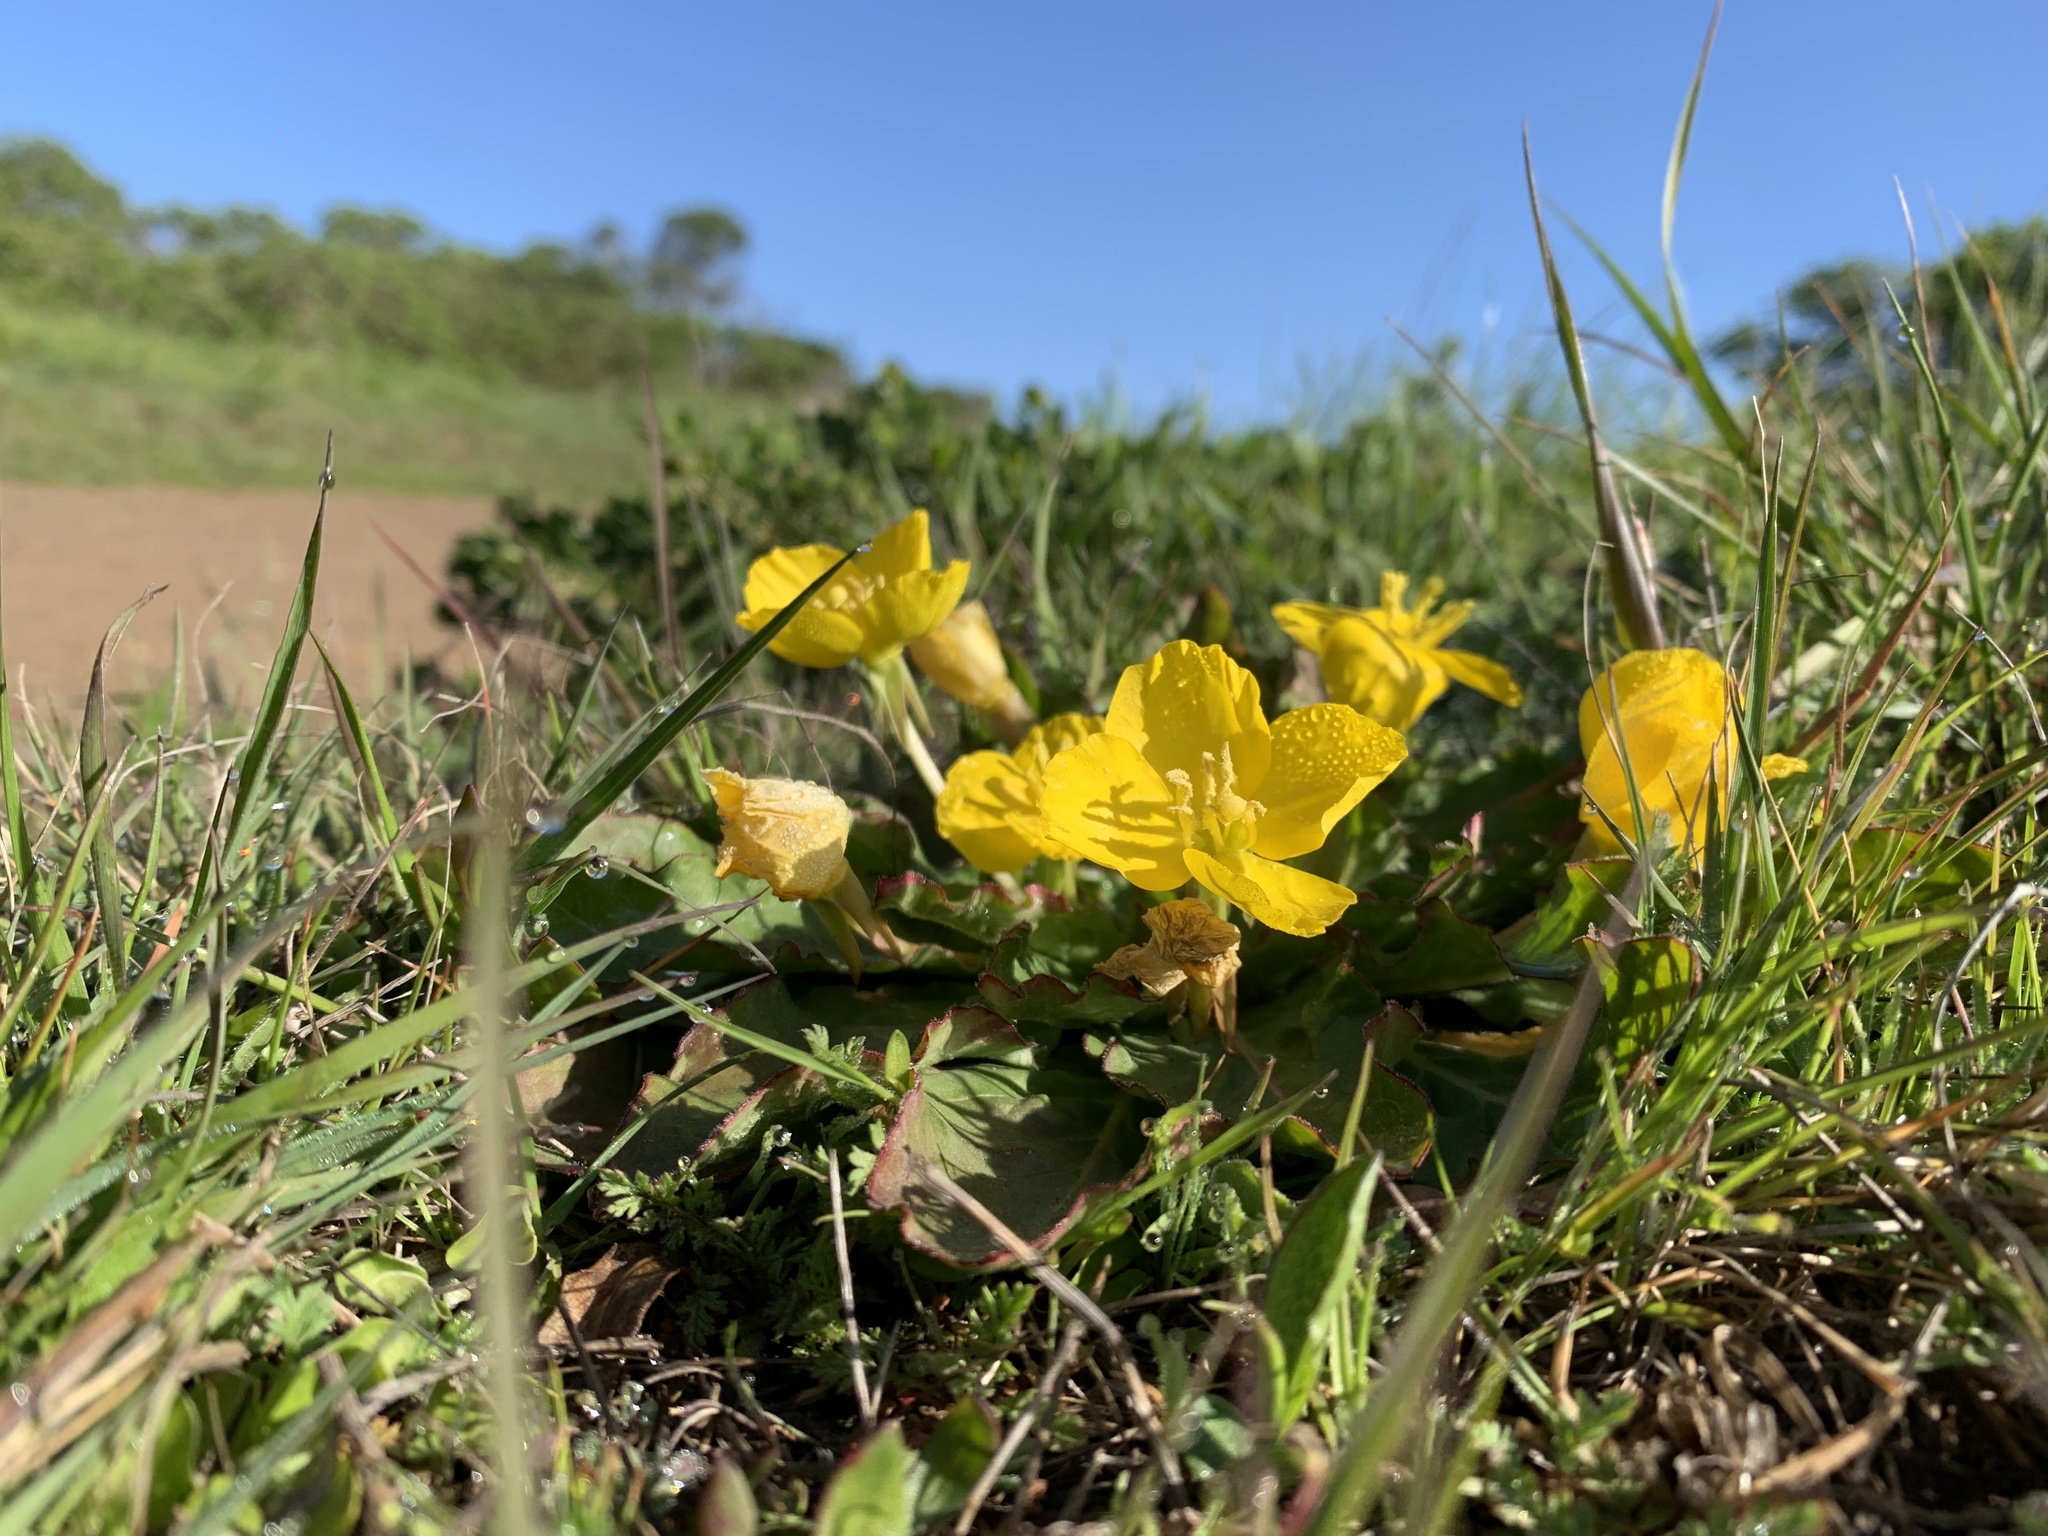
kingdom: Plantae
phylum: Tracheophyta
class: Magnoliopsida
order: Myrtales
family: Onagraceae
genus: Taraxia
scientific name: Taraxia ovata
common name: Goldeneggs
